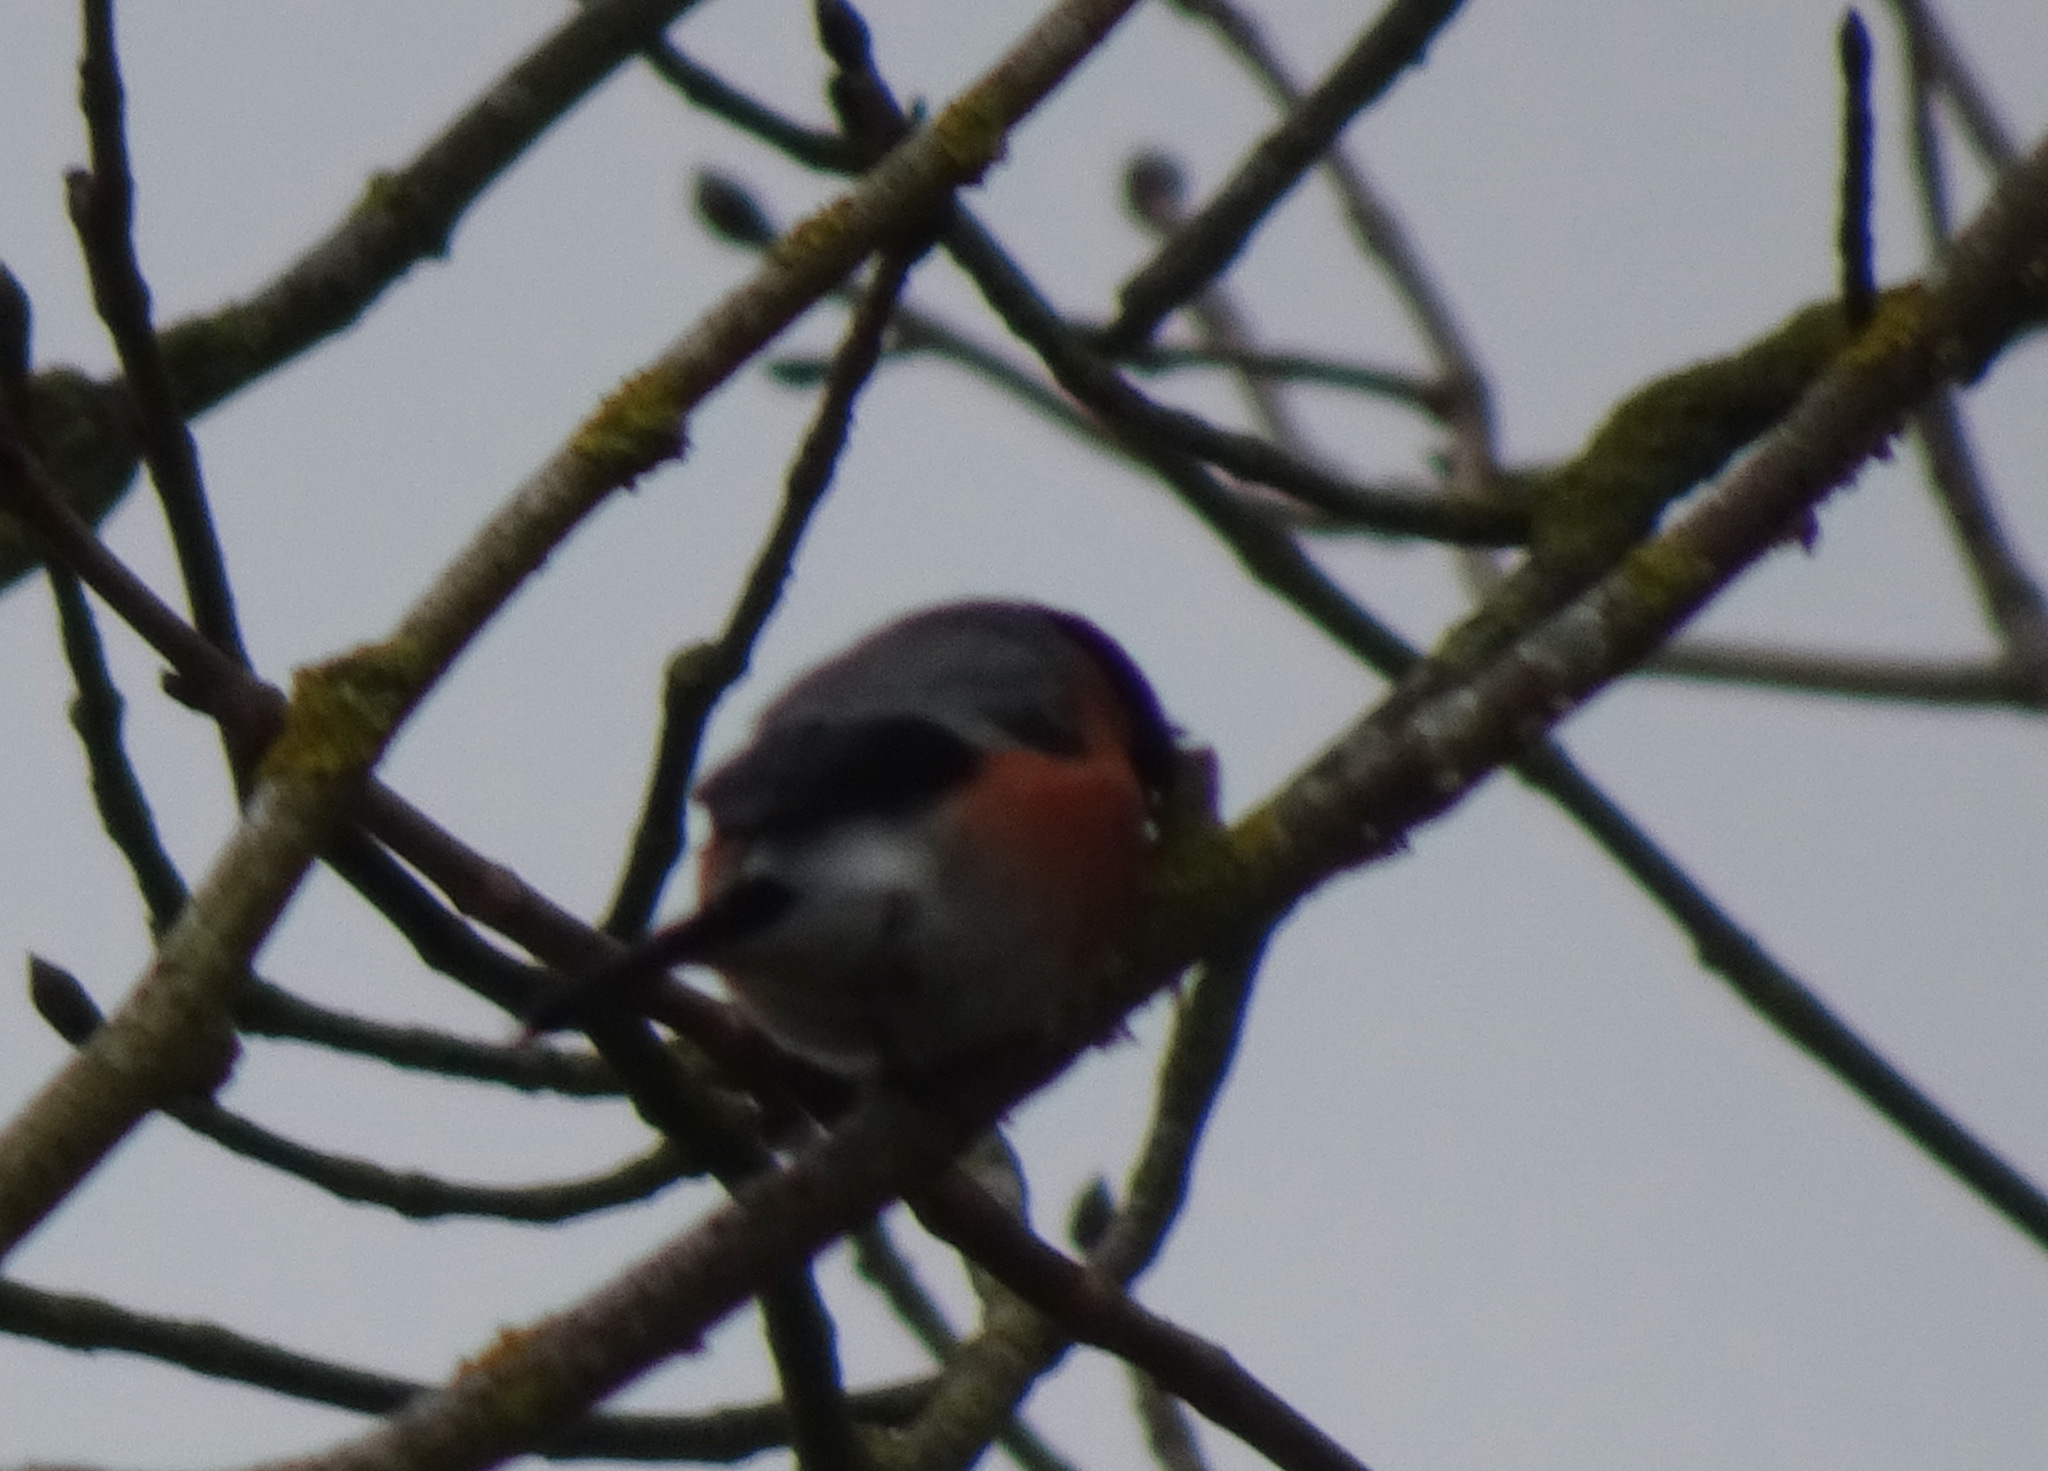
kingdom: Animalia
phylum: Chordata
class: Aves
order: Passeriformes
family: Fringillidae
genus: Pyrrhula
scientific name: Pyrrhula pyrrhula
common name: Eurasian bullfinch
